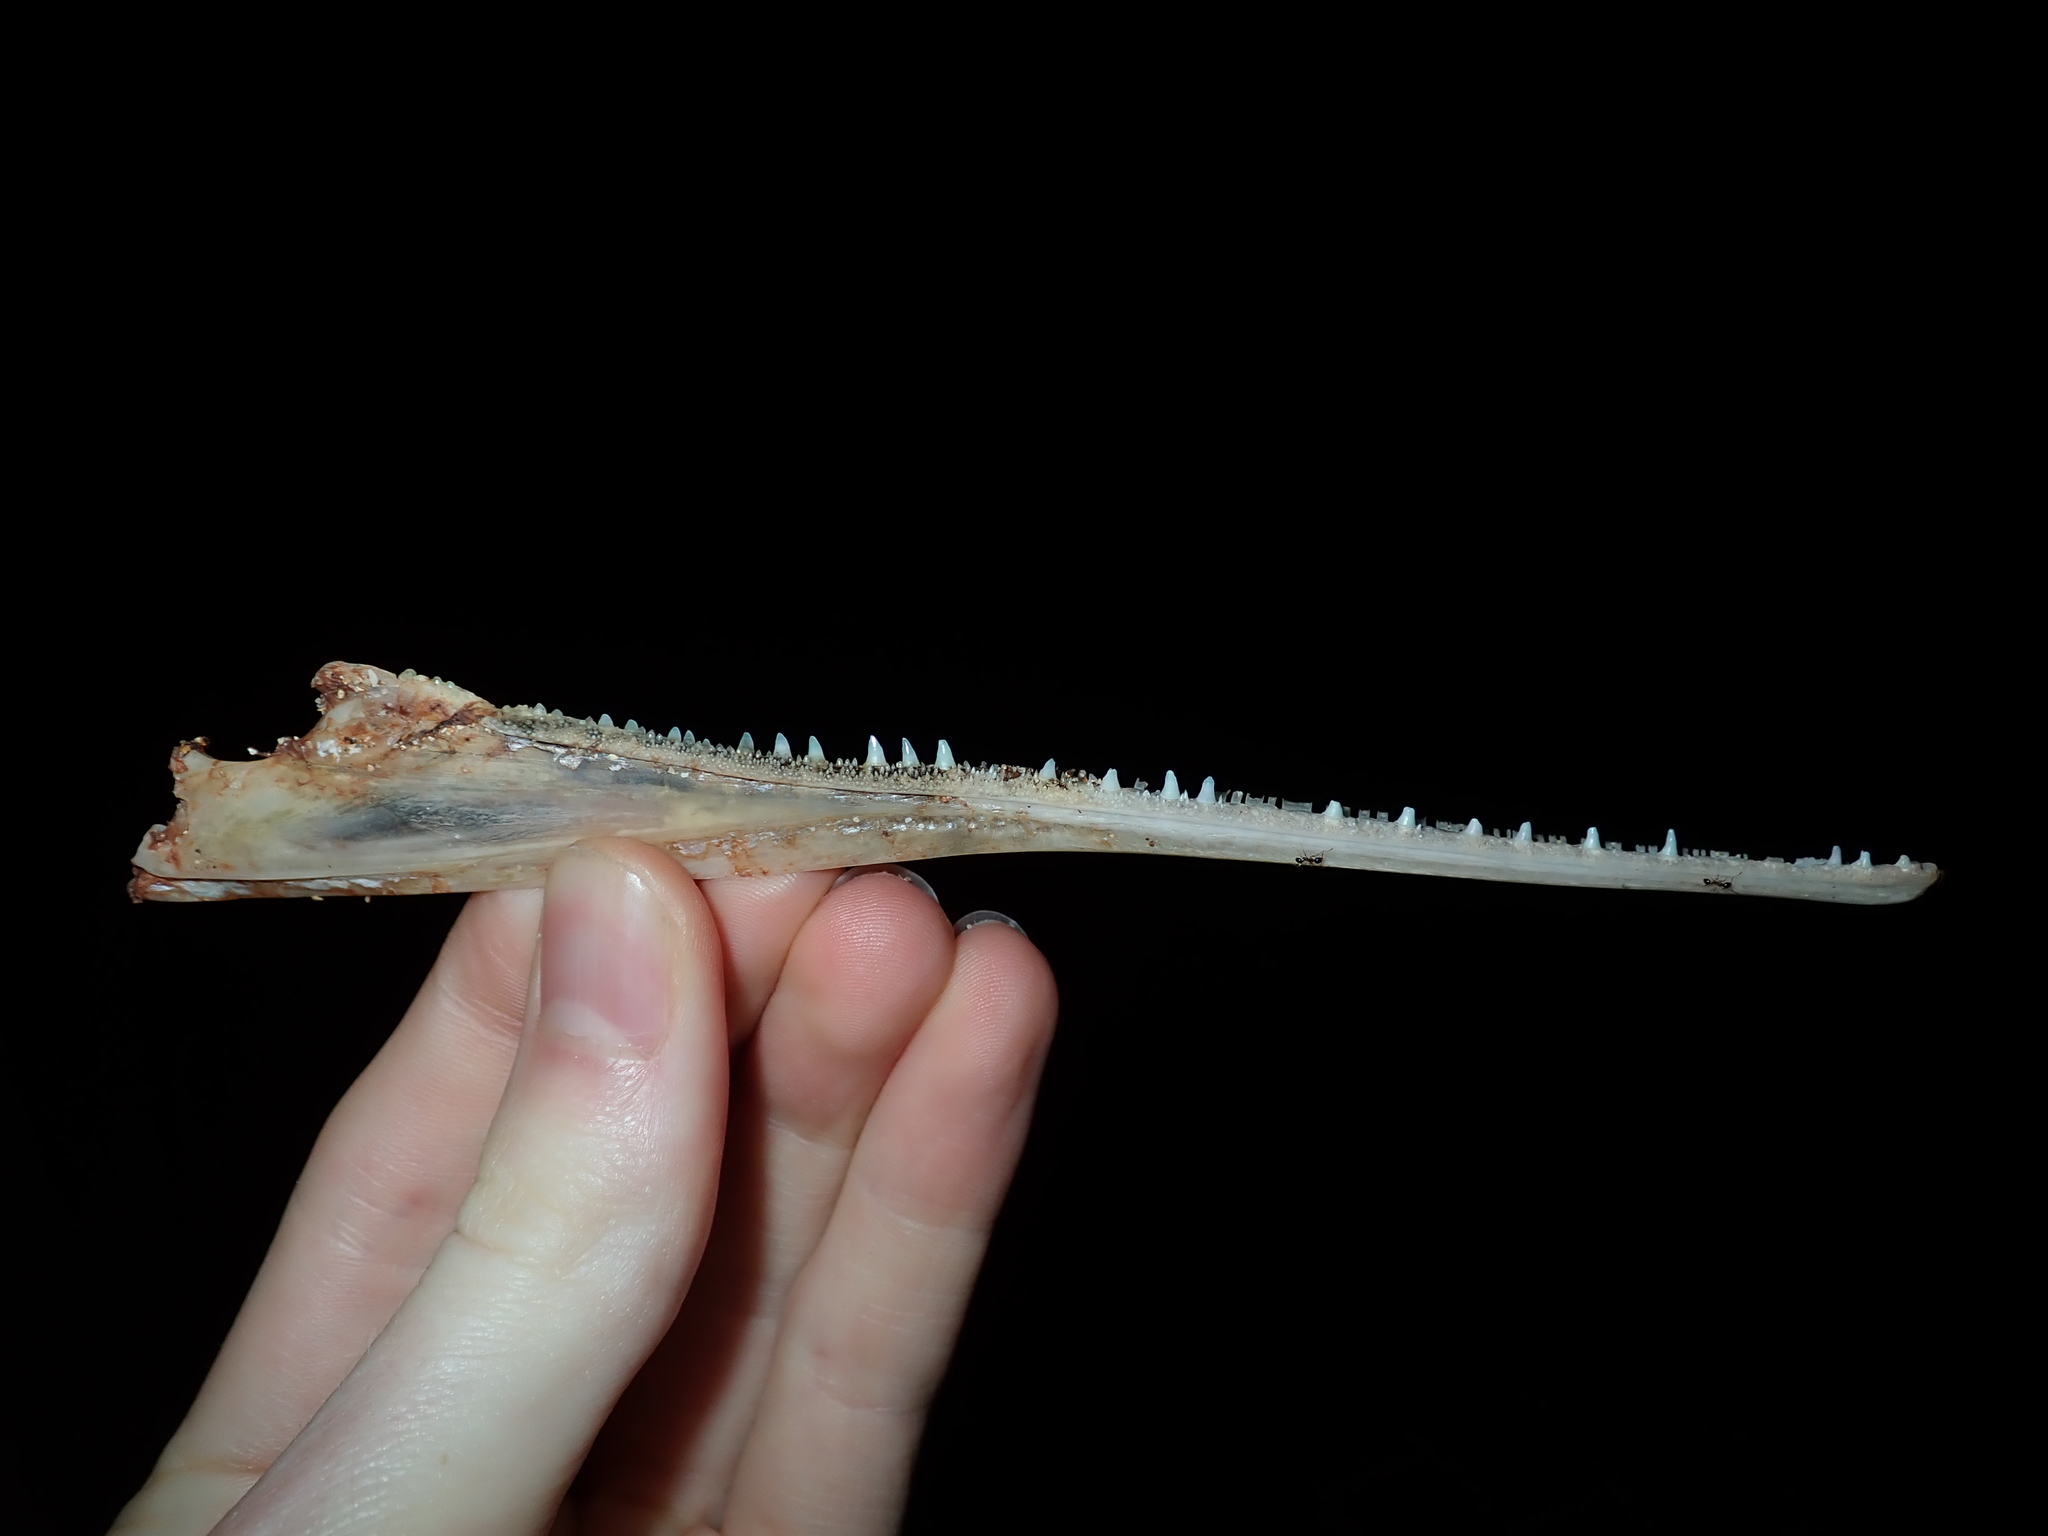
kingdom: Animalia
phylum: Chordata
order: Beloniformes
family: Belonidae
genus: Tylosurus
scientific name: Tylosurus gavialoides
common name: Stout longtom
